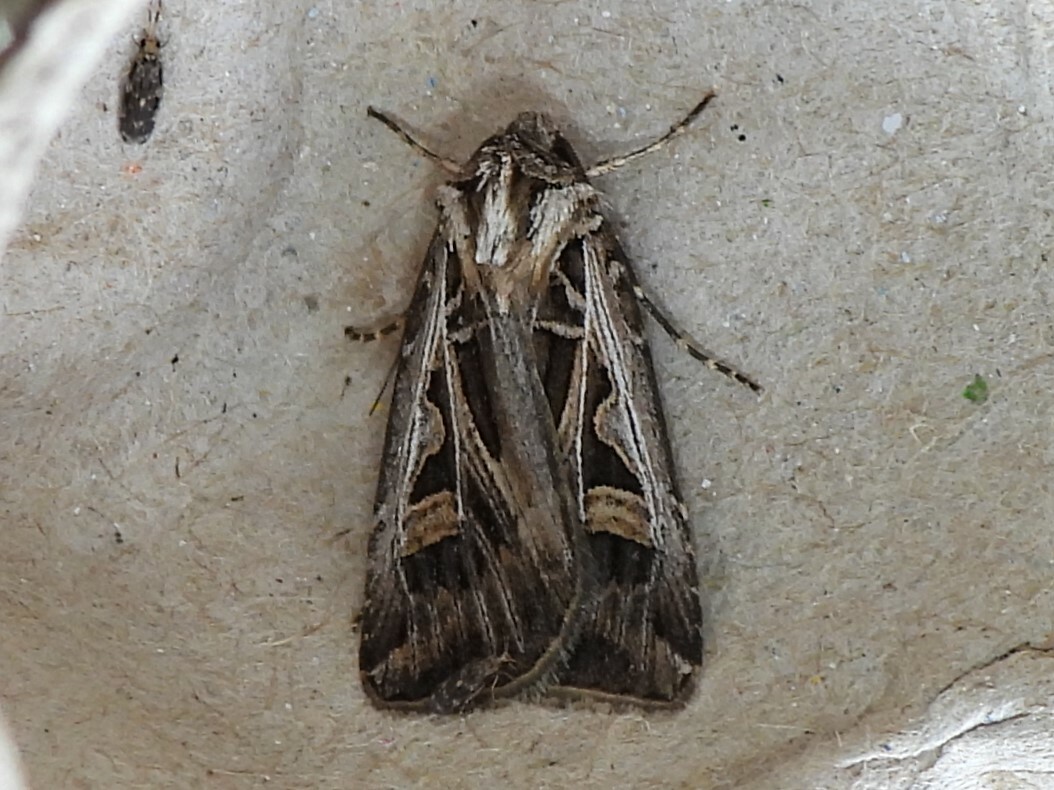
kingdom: Animalia
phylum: Arthropoda
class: Insecta
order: Lepidoptera
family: Noctuidae
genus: Feltia
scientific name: Feltia jaculifera
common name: Dingy cutworm moth
